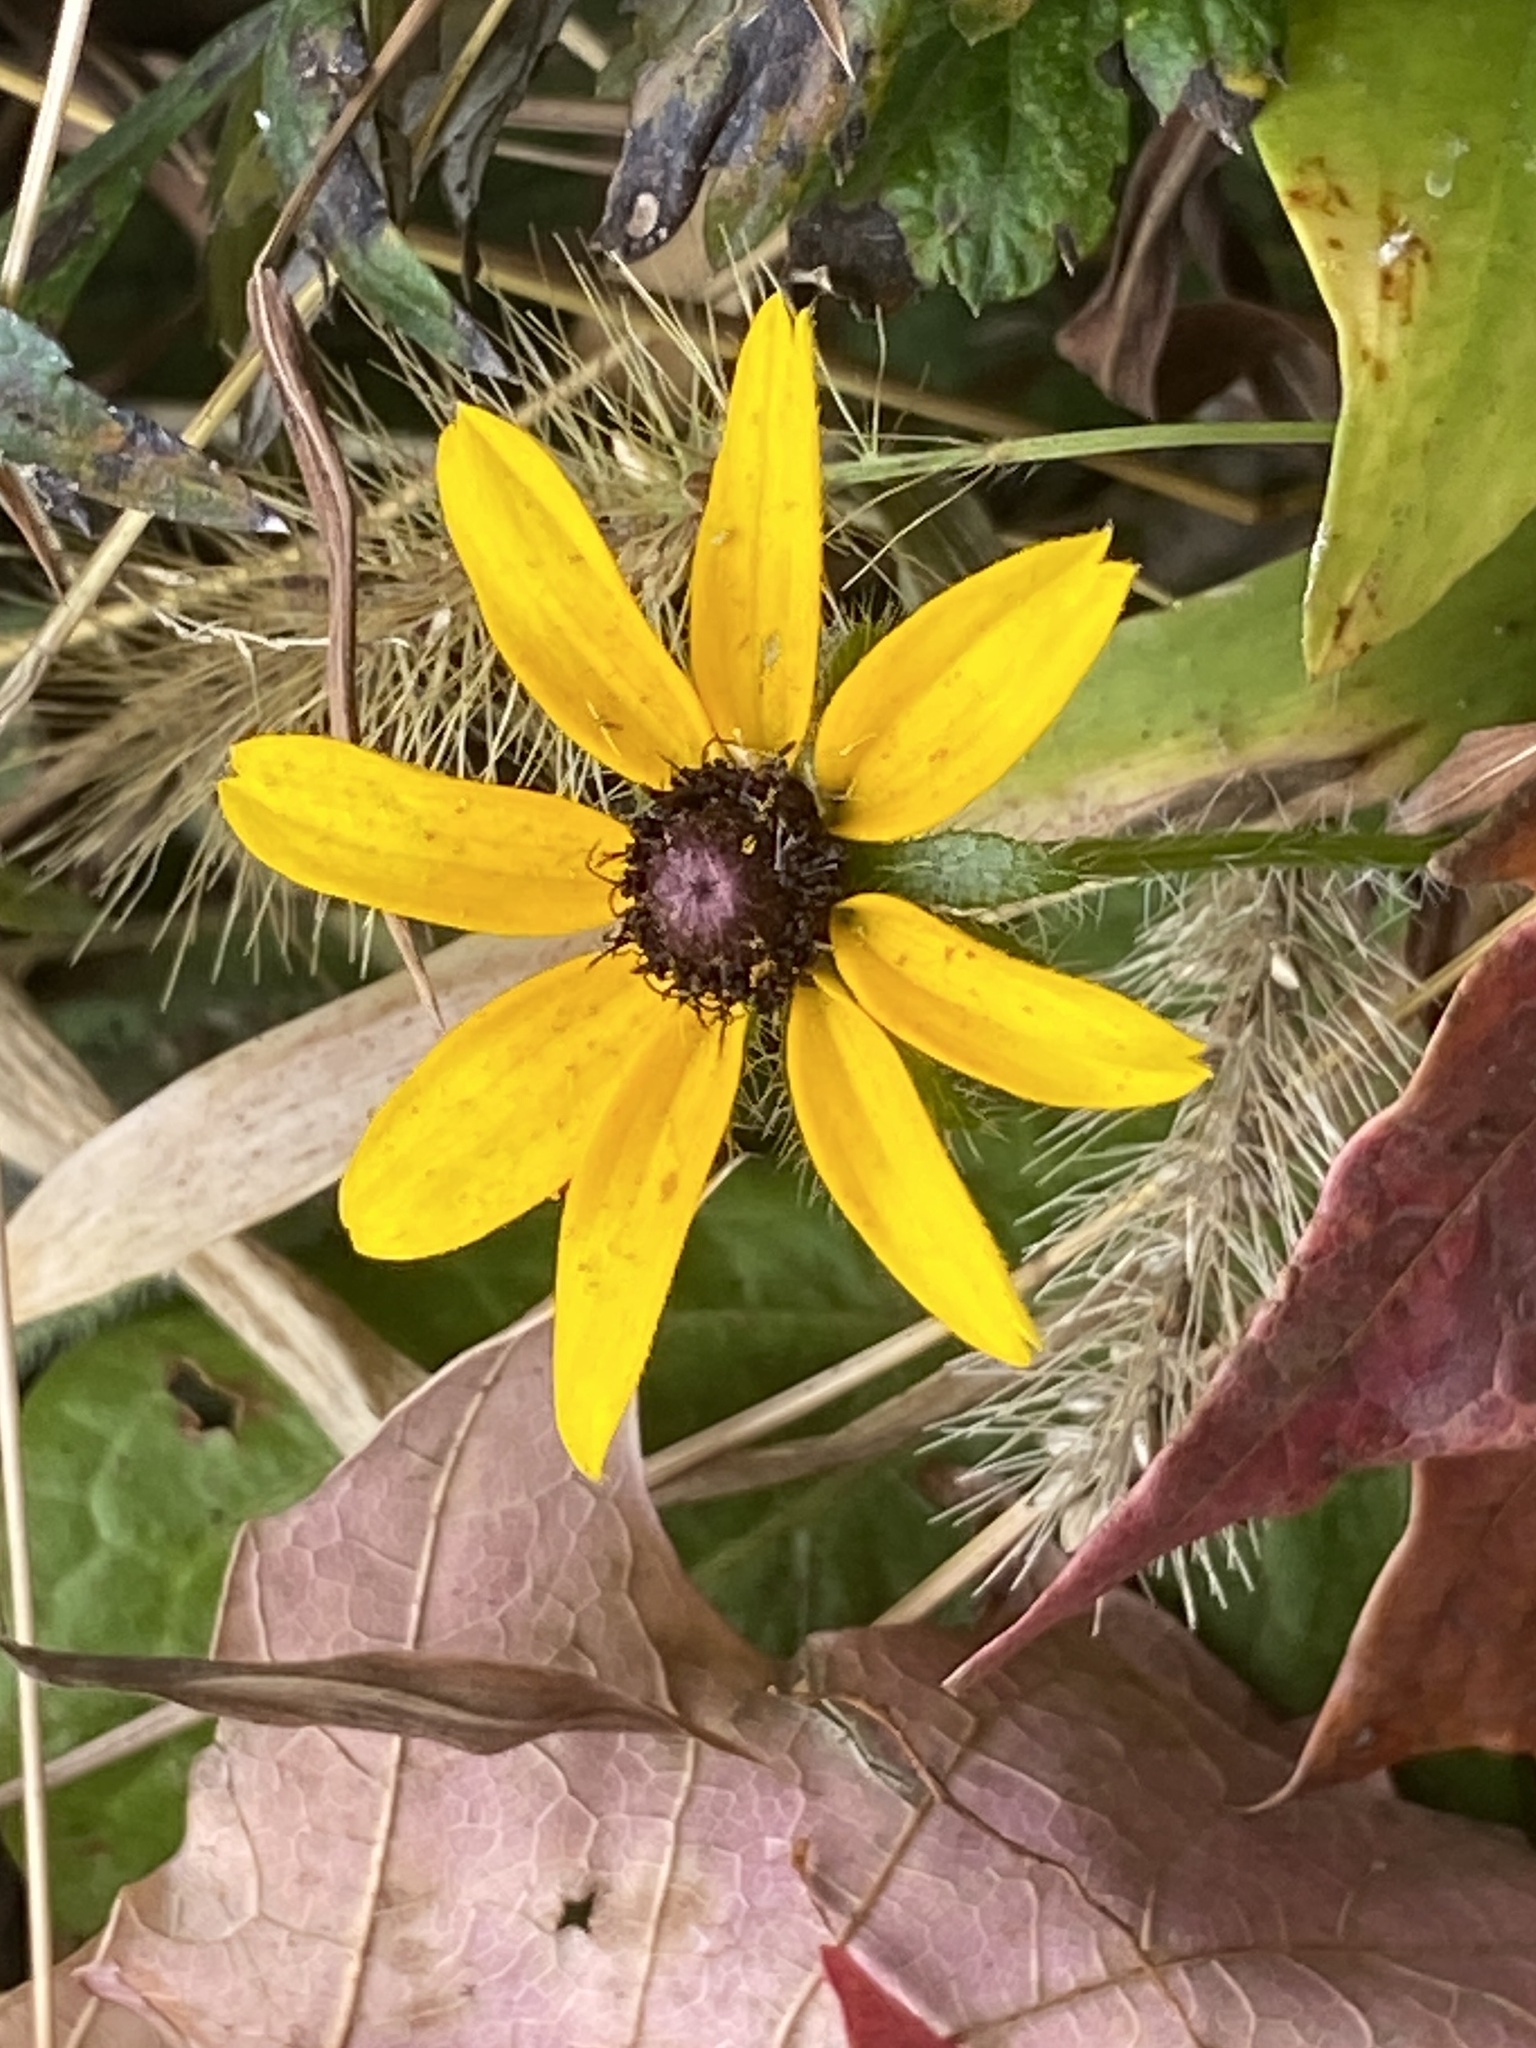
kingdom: Plantae
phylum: Tracheophyta
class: Magnoliopsida
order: Asterales
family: Asteraceae
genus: Rudbeckia
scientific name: Rudbeckia hirta
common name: Black-eyed-susan
